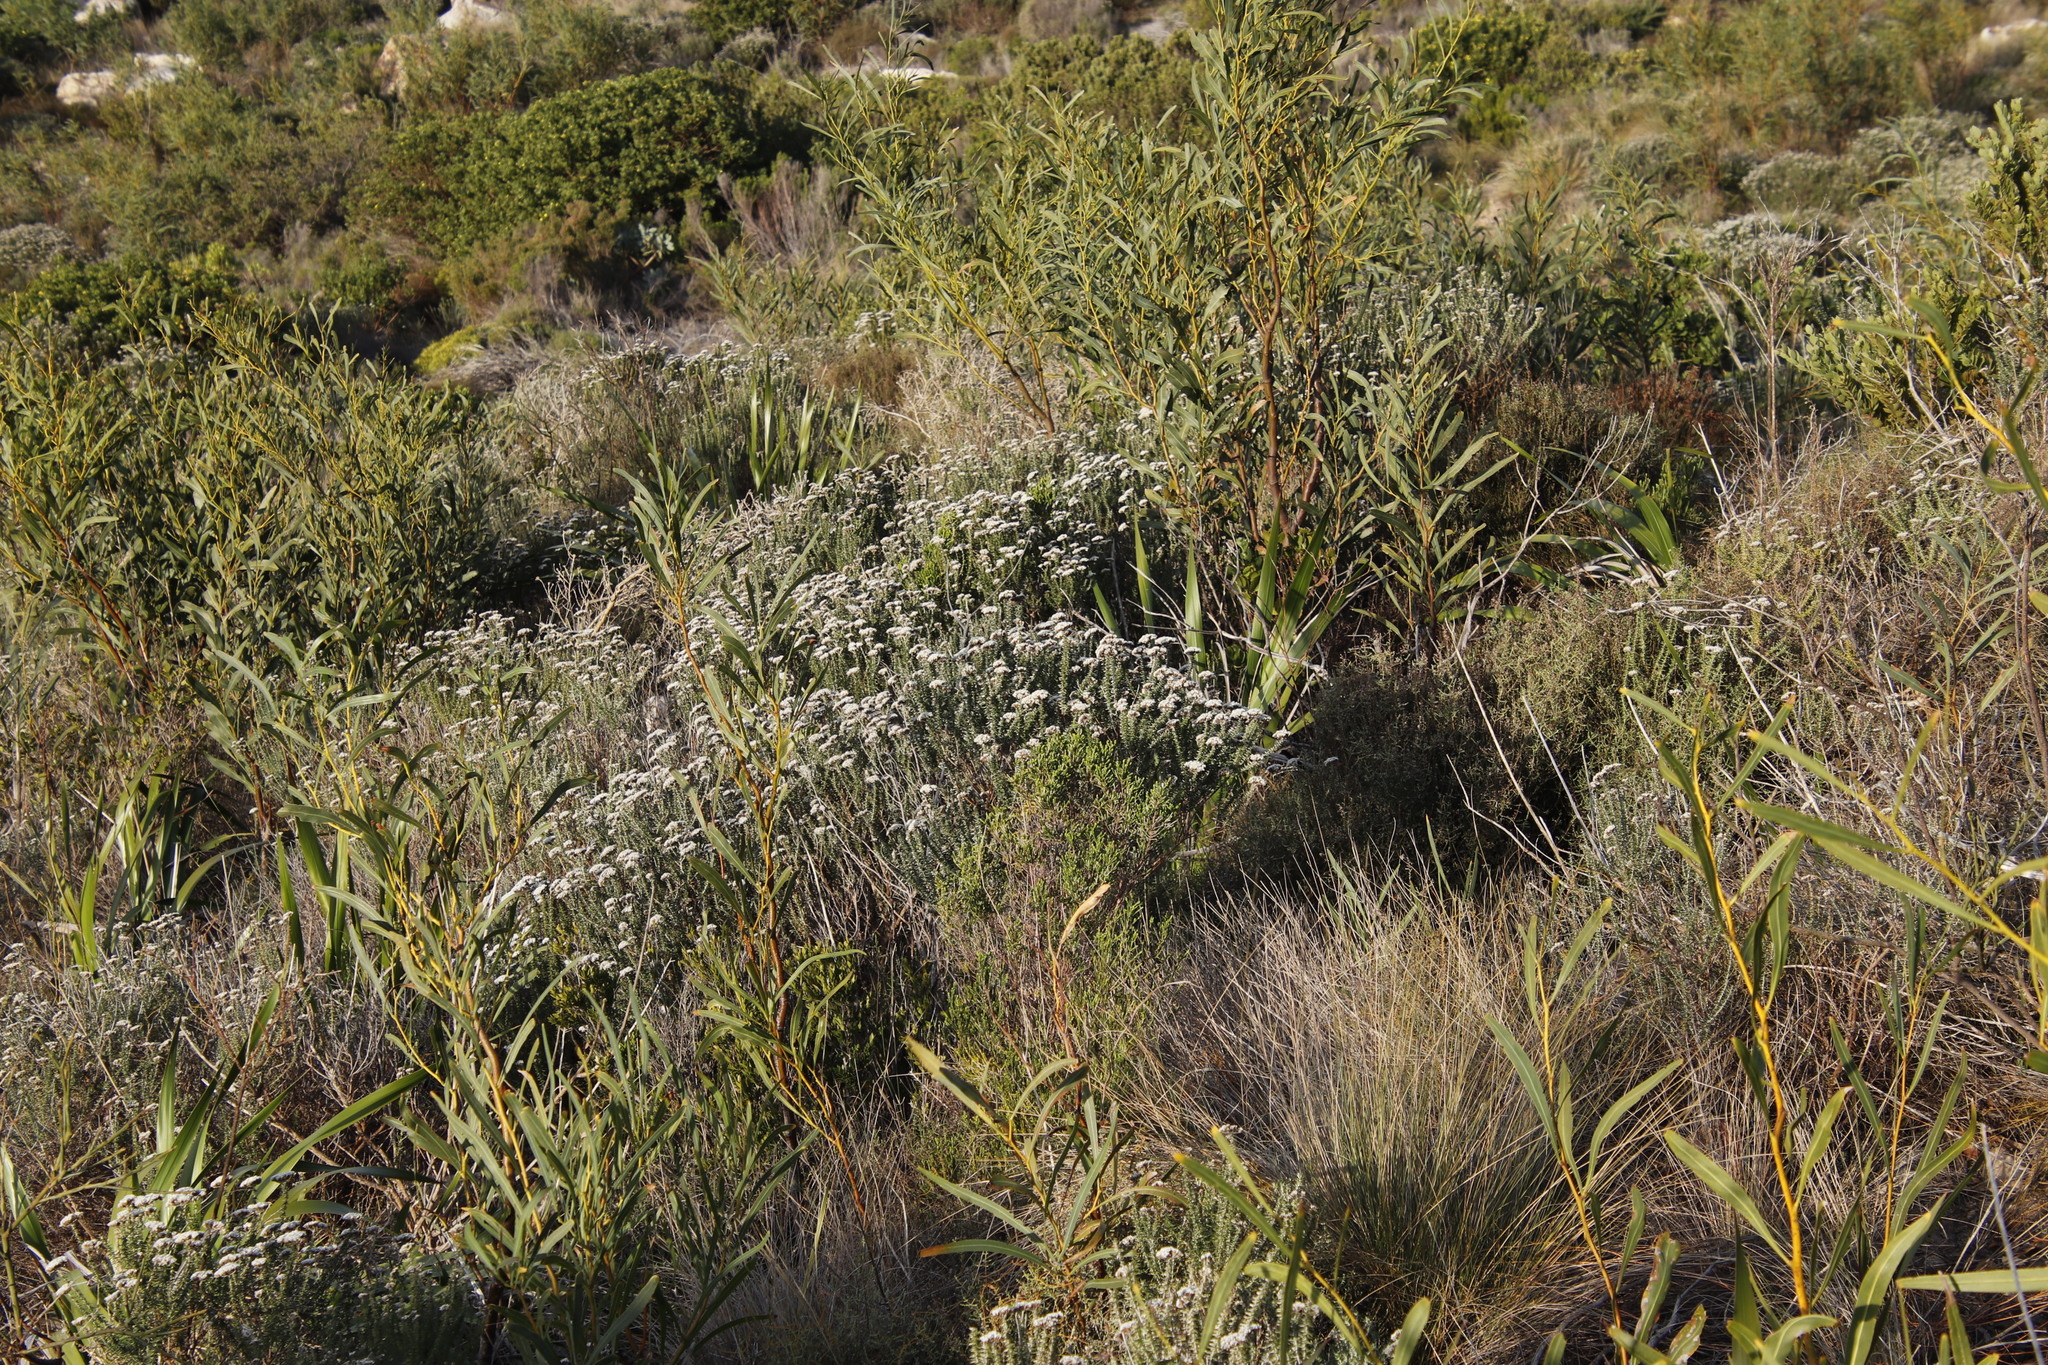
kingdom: Plantae
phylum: Tracheophyta
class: Magnoliopsida
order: Asterales
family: Asteraceae
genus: Metalasia
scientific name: Metalasia densa
